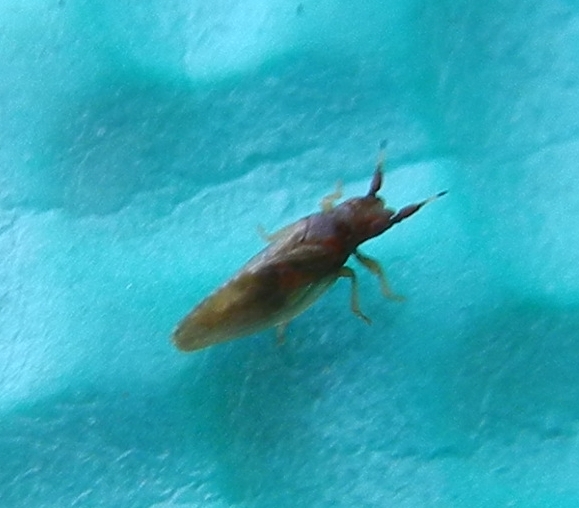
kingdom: Animalia
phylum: Arthropoda
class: Insecta
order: Hemiptera
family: Liviidae
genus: Livia
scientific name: Livia junci
